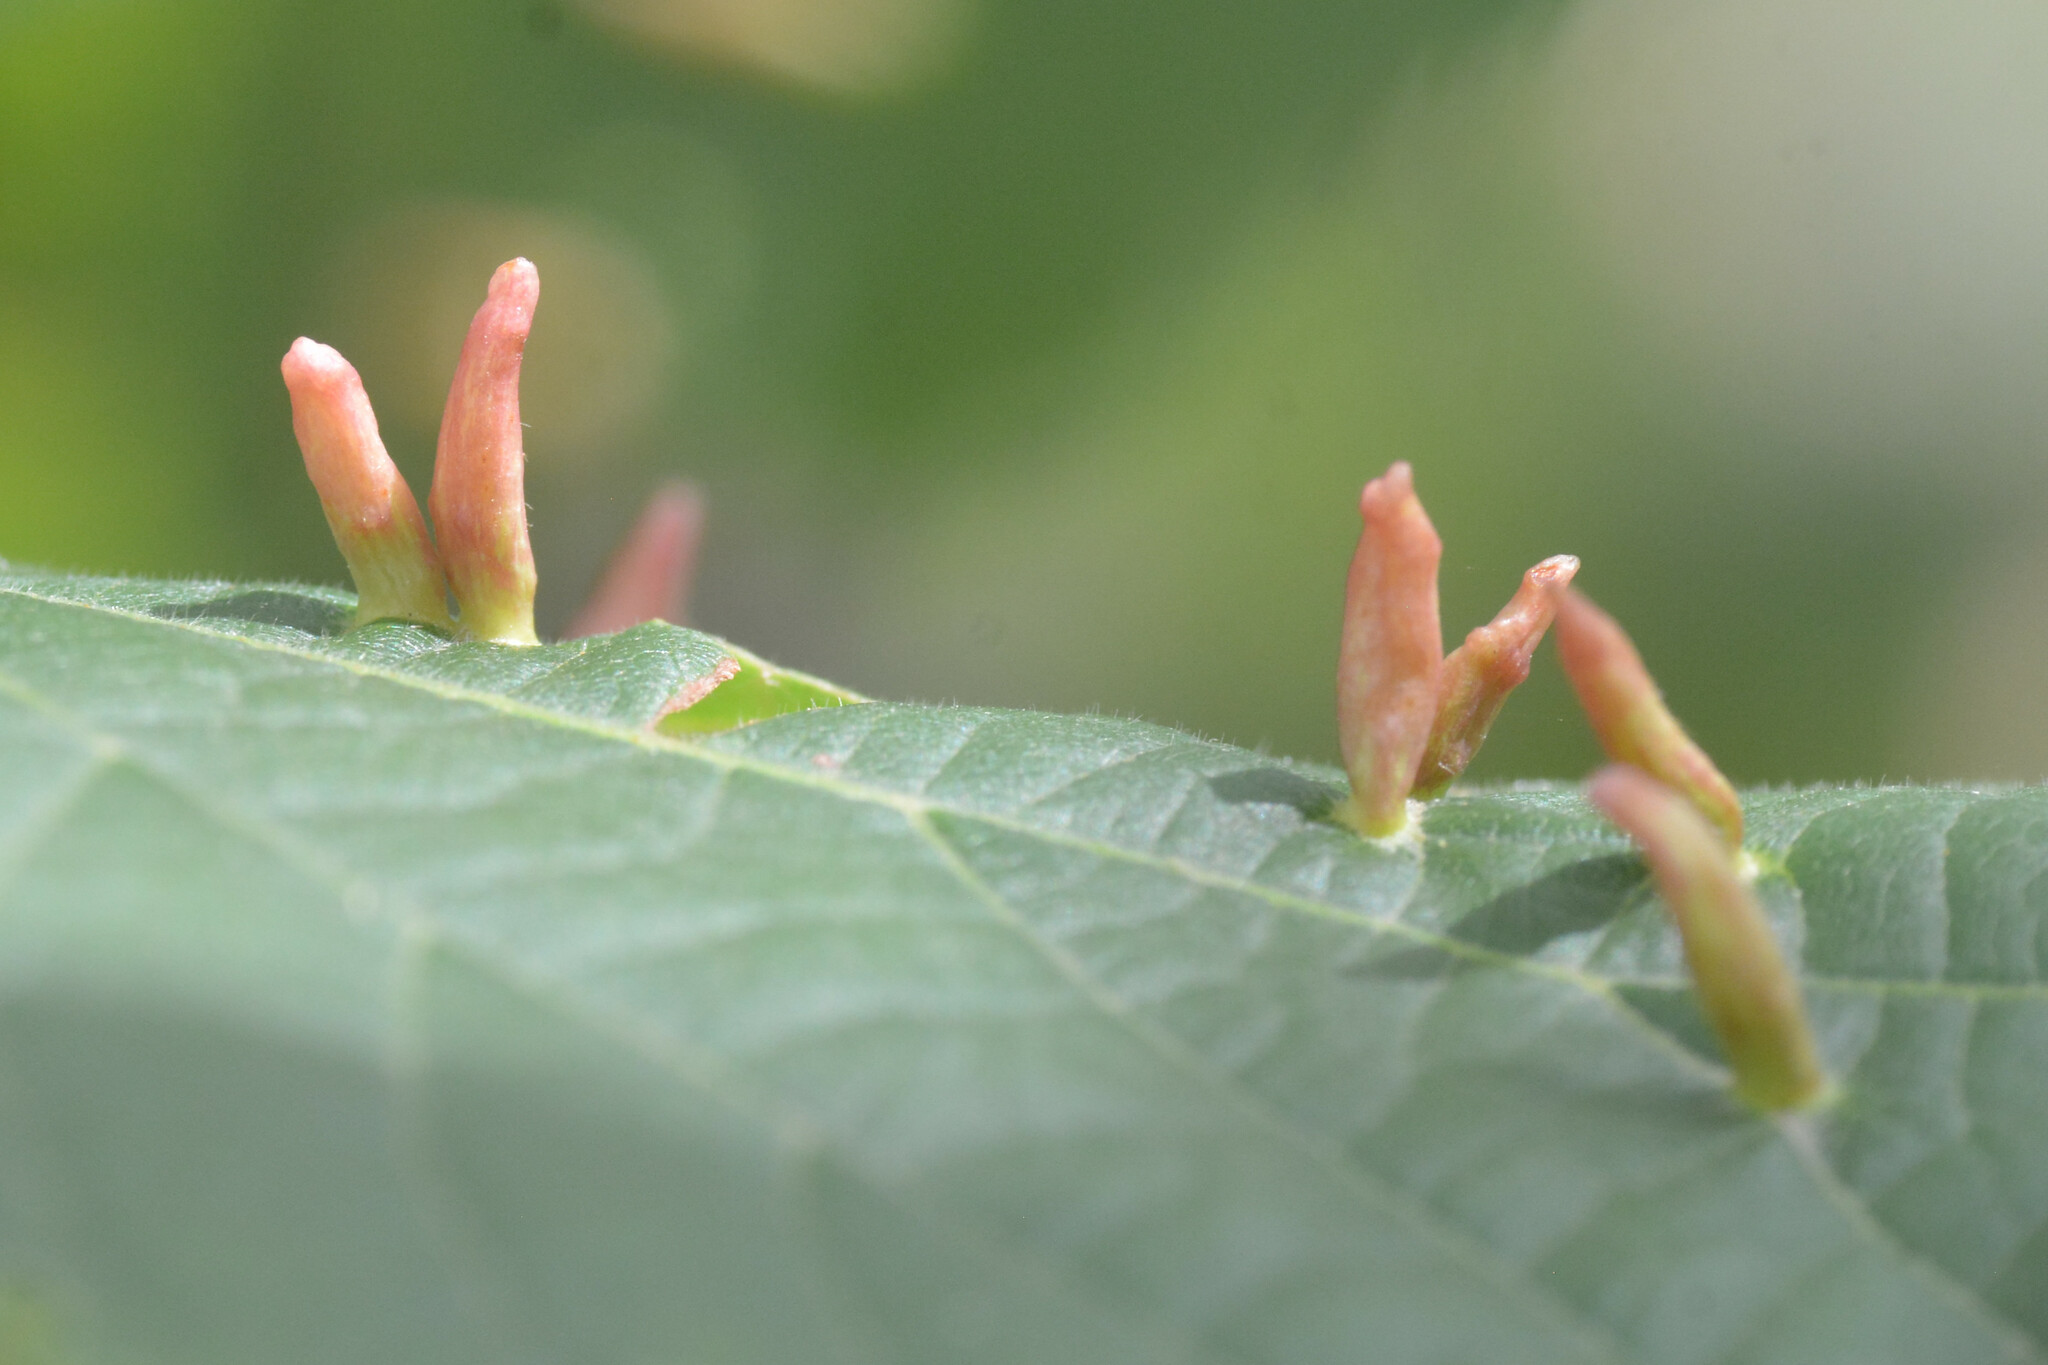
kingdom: Animalia
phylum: Arthropoda
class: Arachnida
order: Trombidiformes
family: Eriophyidae
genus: Eriophyes
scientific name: Eriophyes tiliae
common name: Red nail gall mite
